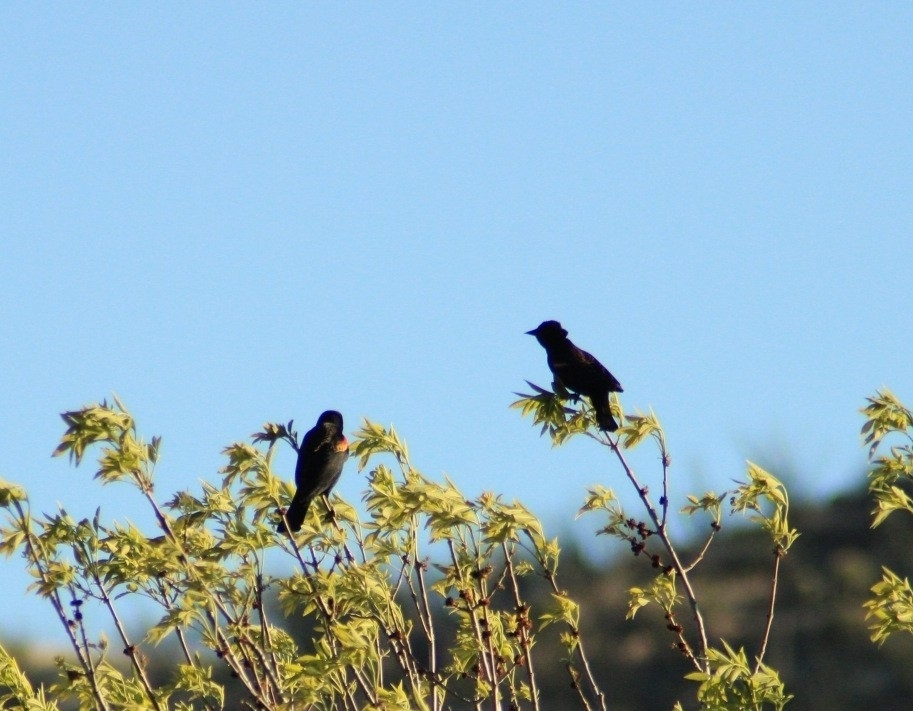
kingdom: Animalia
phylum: Chordata
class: Aves
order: Passeriformes
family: Icteridae
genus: Agelaius
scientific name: Agelaius phoeniceus
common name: Red-winged blackbird
